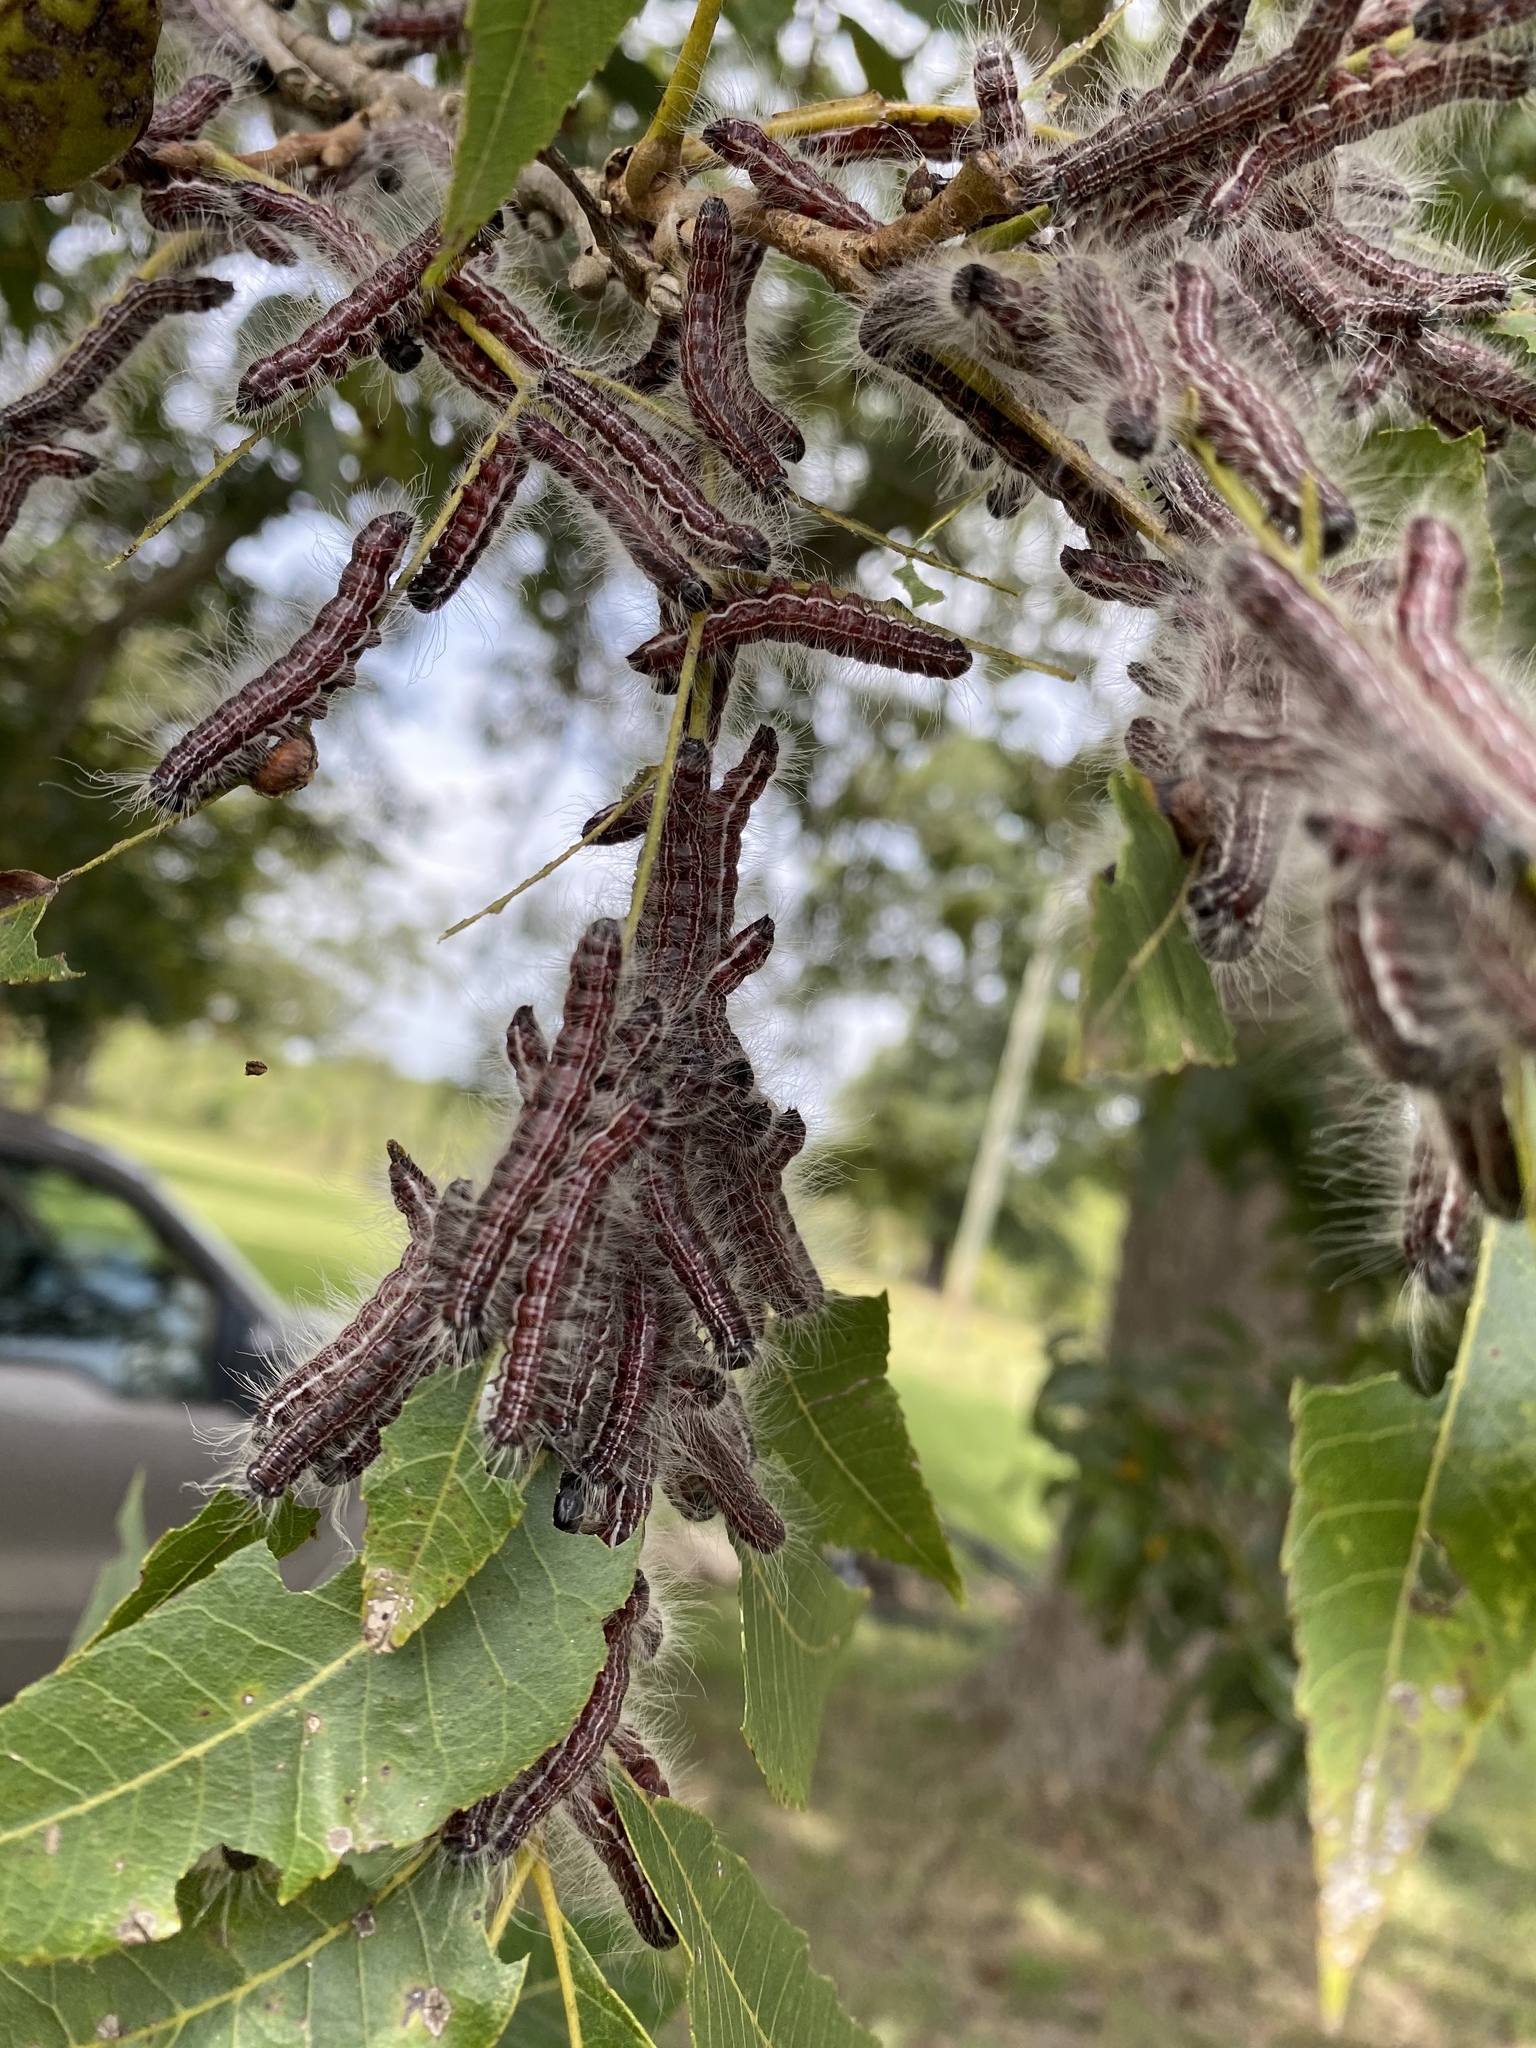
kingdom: Animalia
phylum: Arthropoda
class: Insecta
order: Lepidoptera
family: Notodontidae
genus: Datana
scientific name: Datana integerrima
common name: Walnut caterpillar
